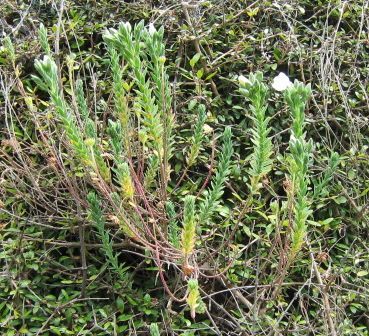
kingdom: Plantae
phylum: Tracheophyta
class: Magnoliopsida
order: Malpighiales
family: Linaceae
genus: Linum
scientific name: Linum monogynum
